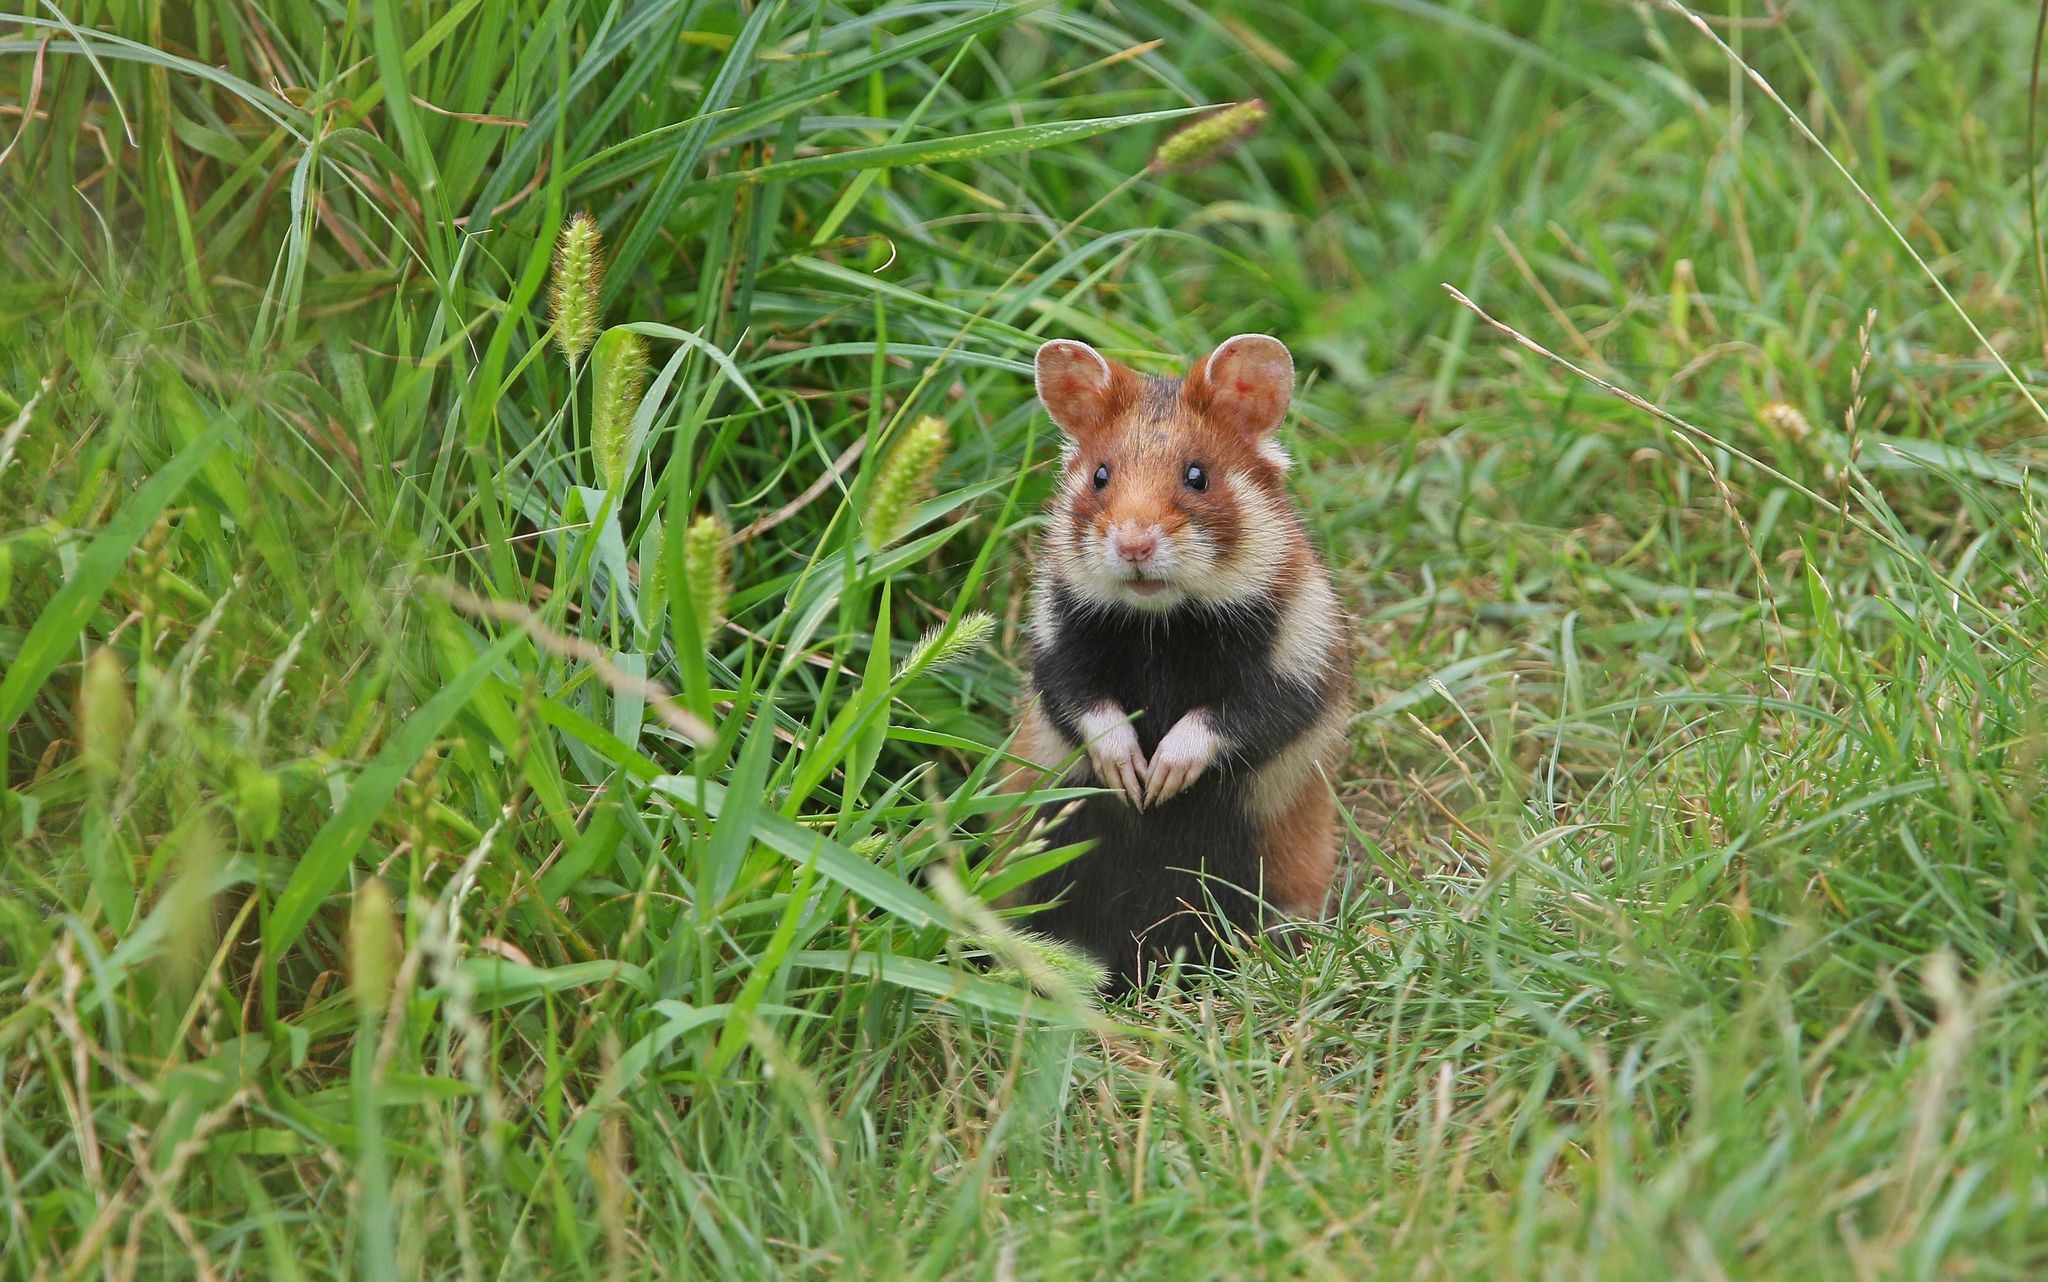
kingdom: Animalia
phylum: Chordata
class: Mammalia
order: Rodentia
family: Cricetidae
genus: Cricetus
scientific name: Cricetus cricetus
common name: Common hamster
